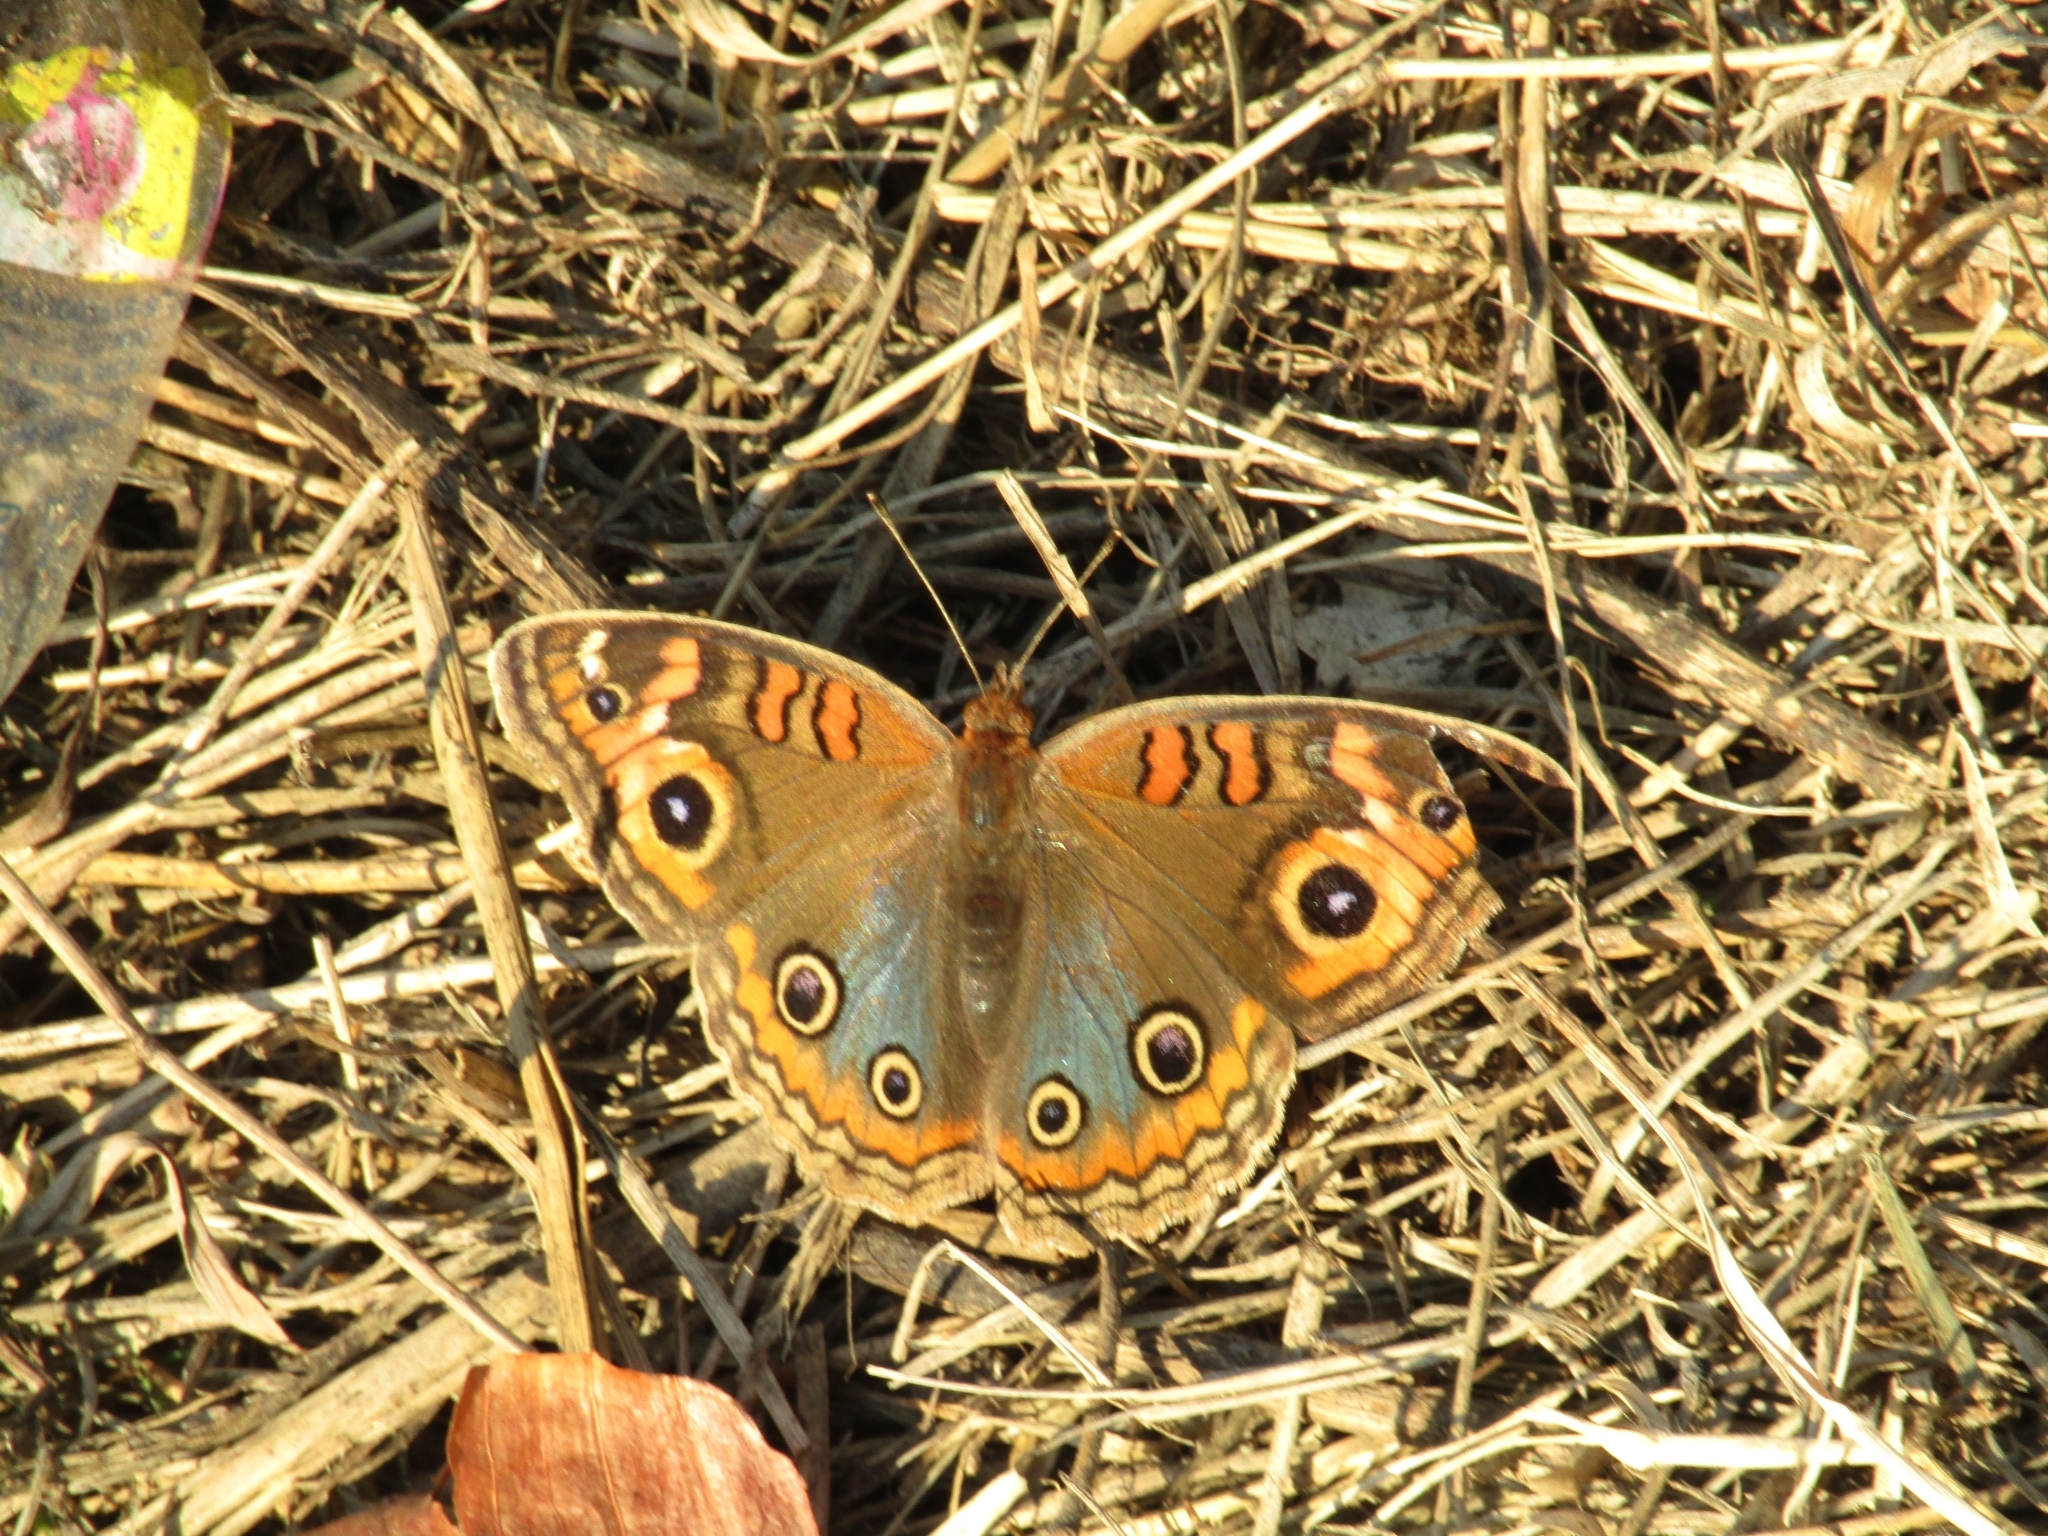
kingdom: Animalia
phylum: Arthropoda
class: Insecta
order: Lepidoptera
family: Nymphalidae
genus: Junonia
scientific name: Junonia lavinia
